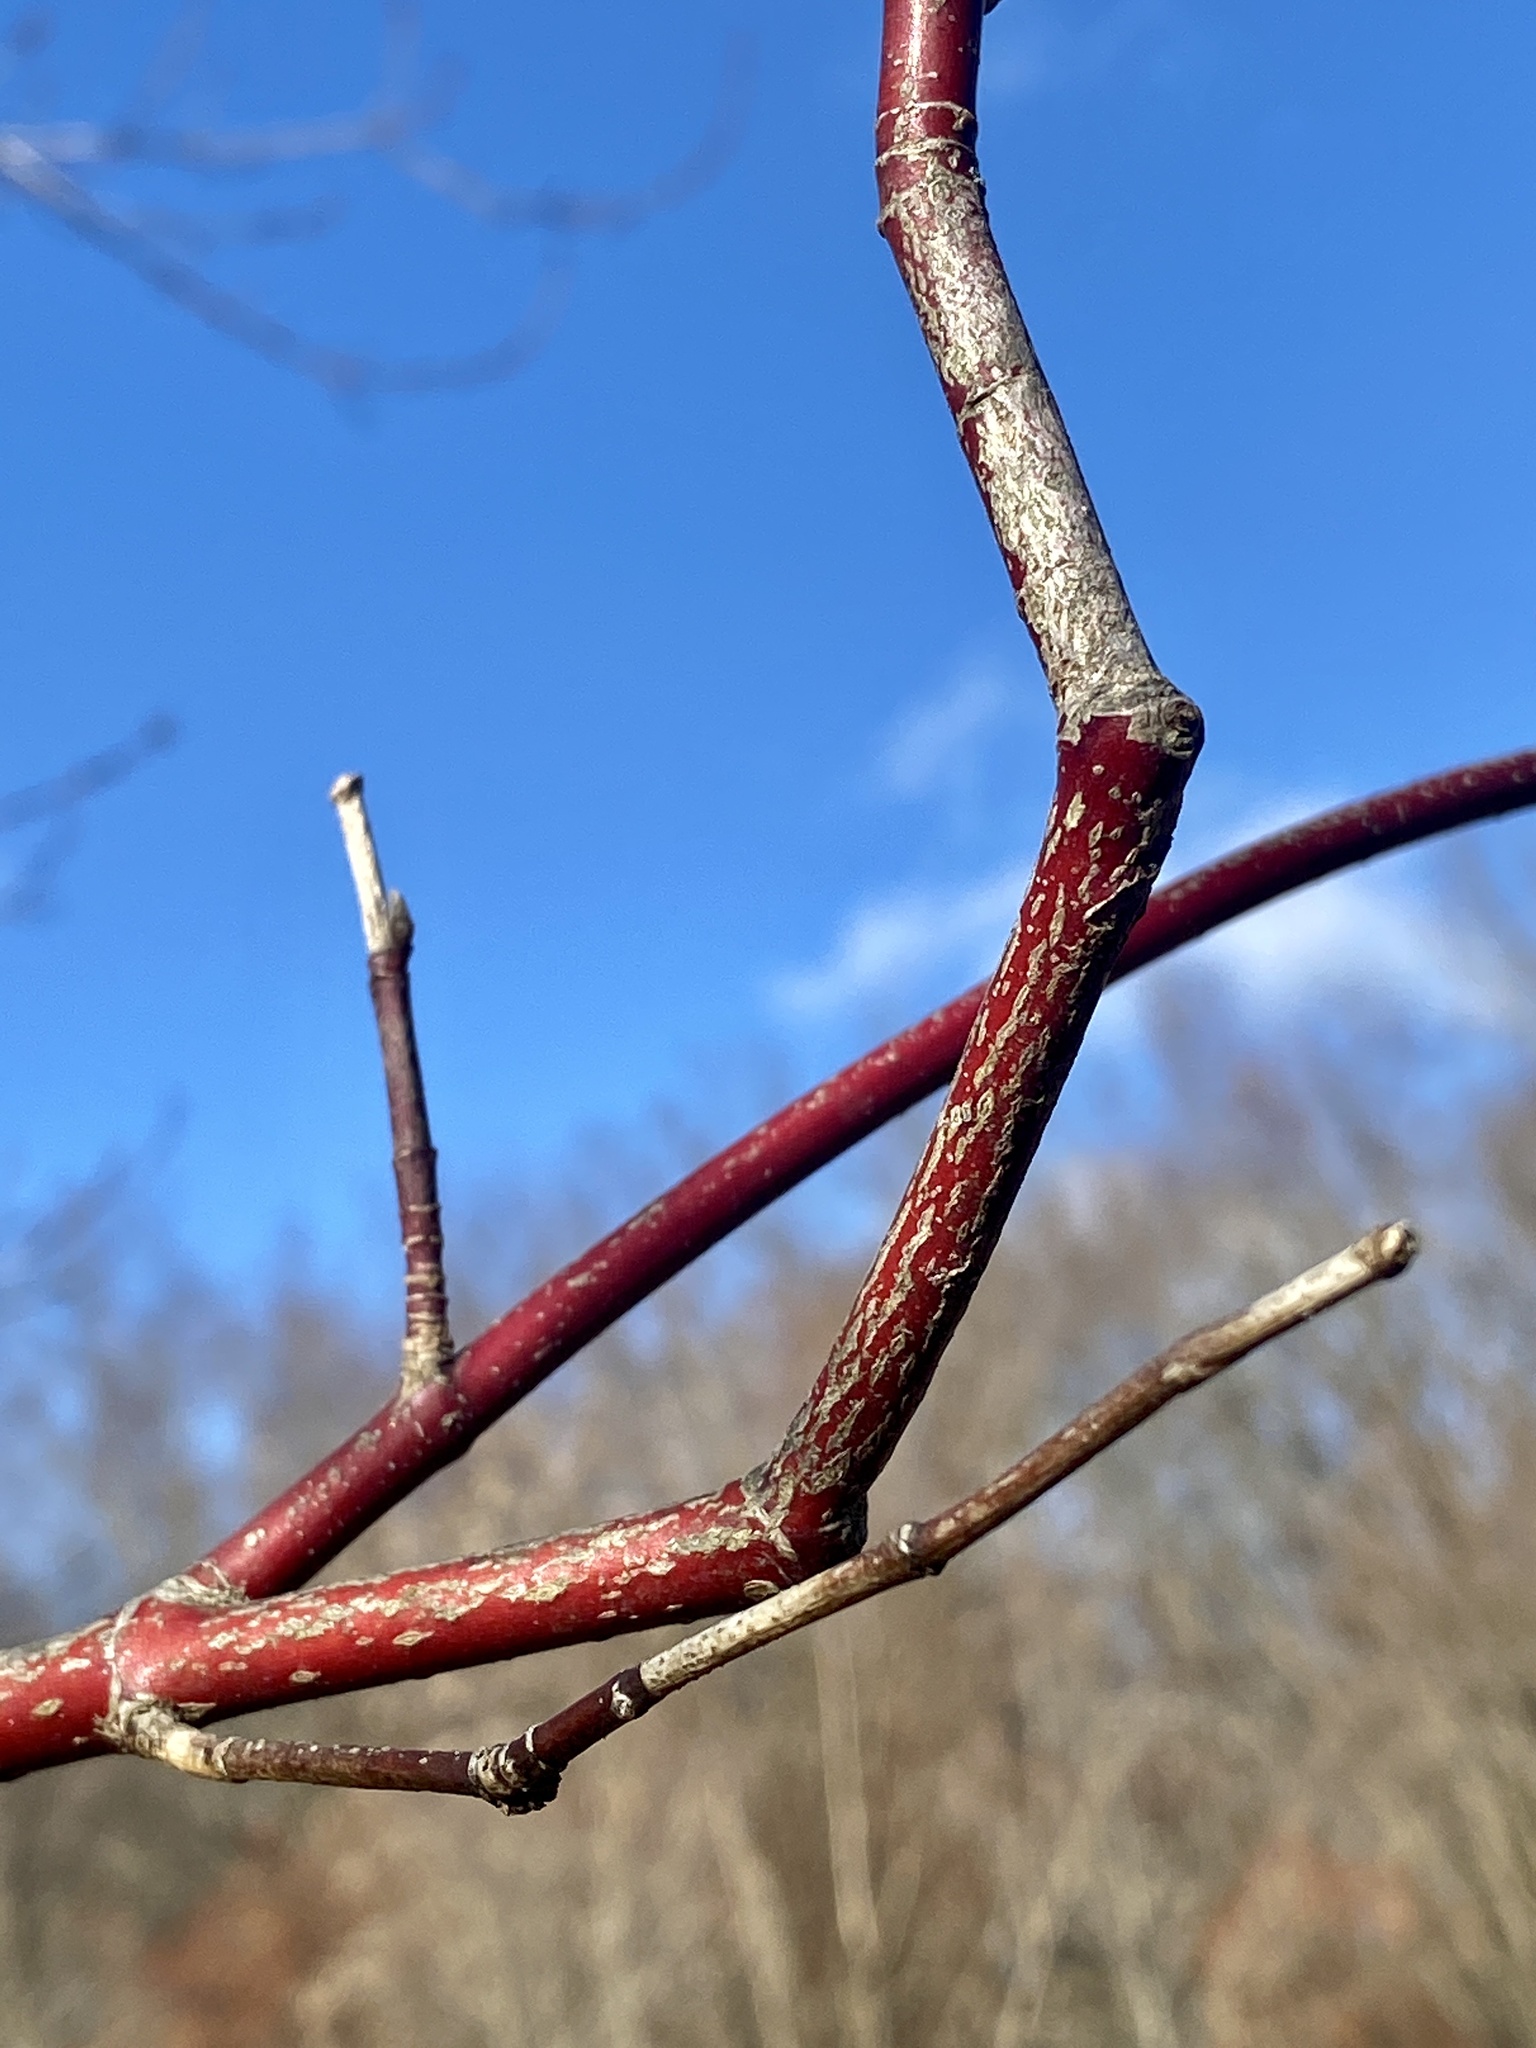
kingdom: Plantae
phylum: Tracheophyta
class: Magnoliopsida
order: Cornales
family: Cornaceae
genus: Cornus
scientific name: Cornus amomum
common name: Silky dogwood
